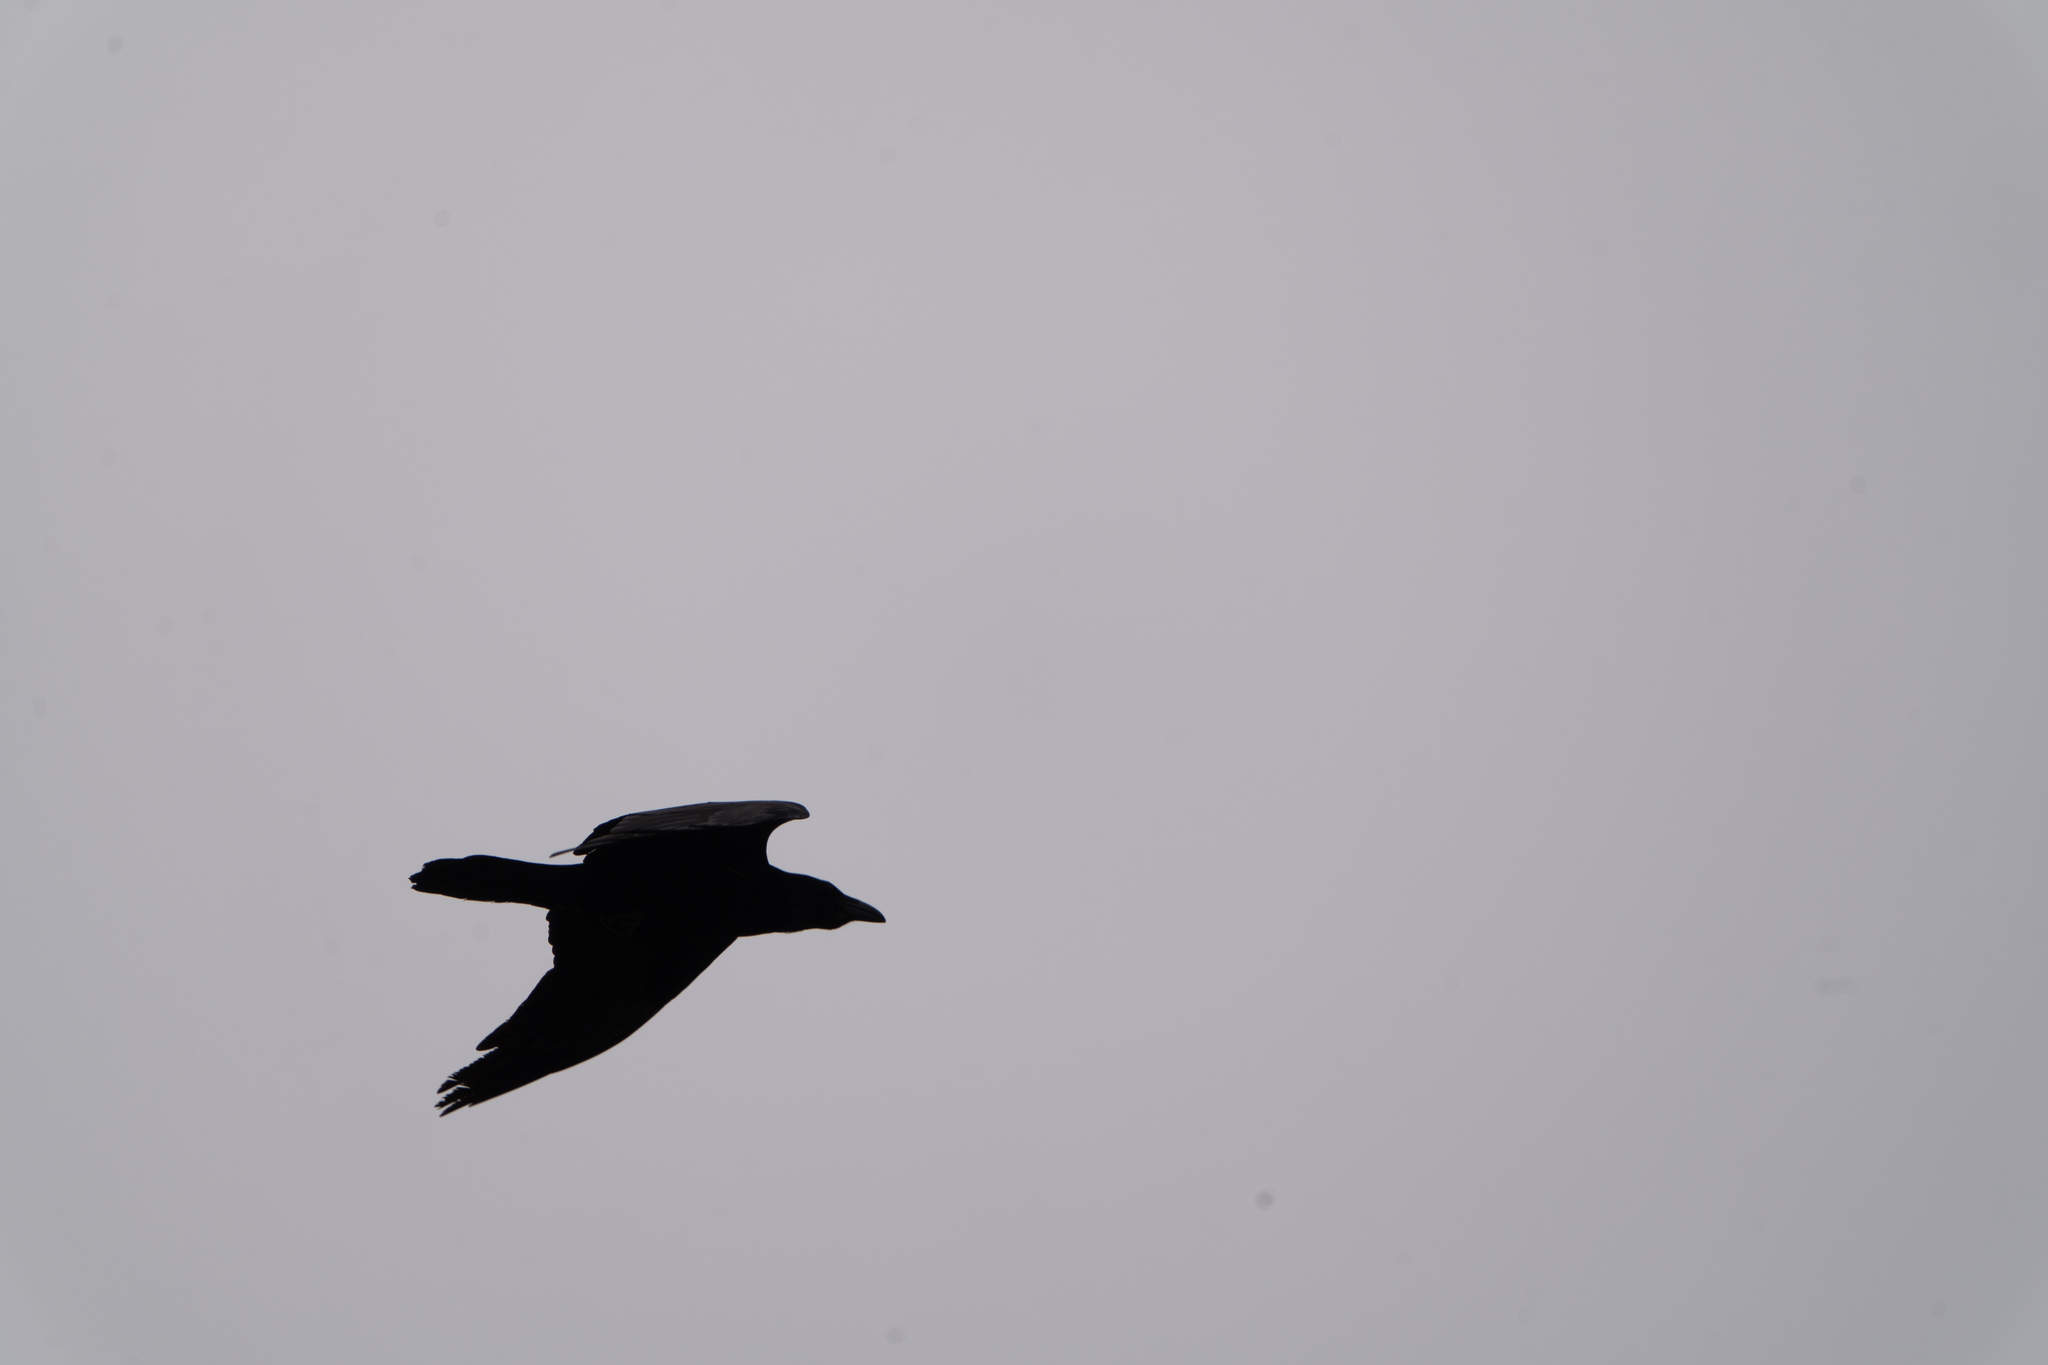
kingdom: Animalia
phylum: Chordata
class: Aves
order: Passeriformes
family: Corvidae
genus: Corvus
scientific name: Corvus corax
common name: Common raven
